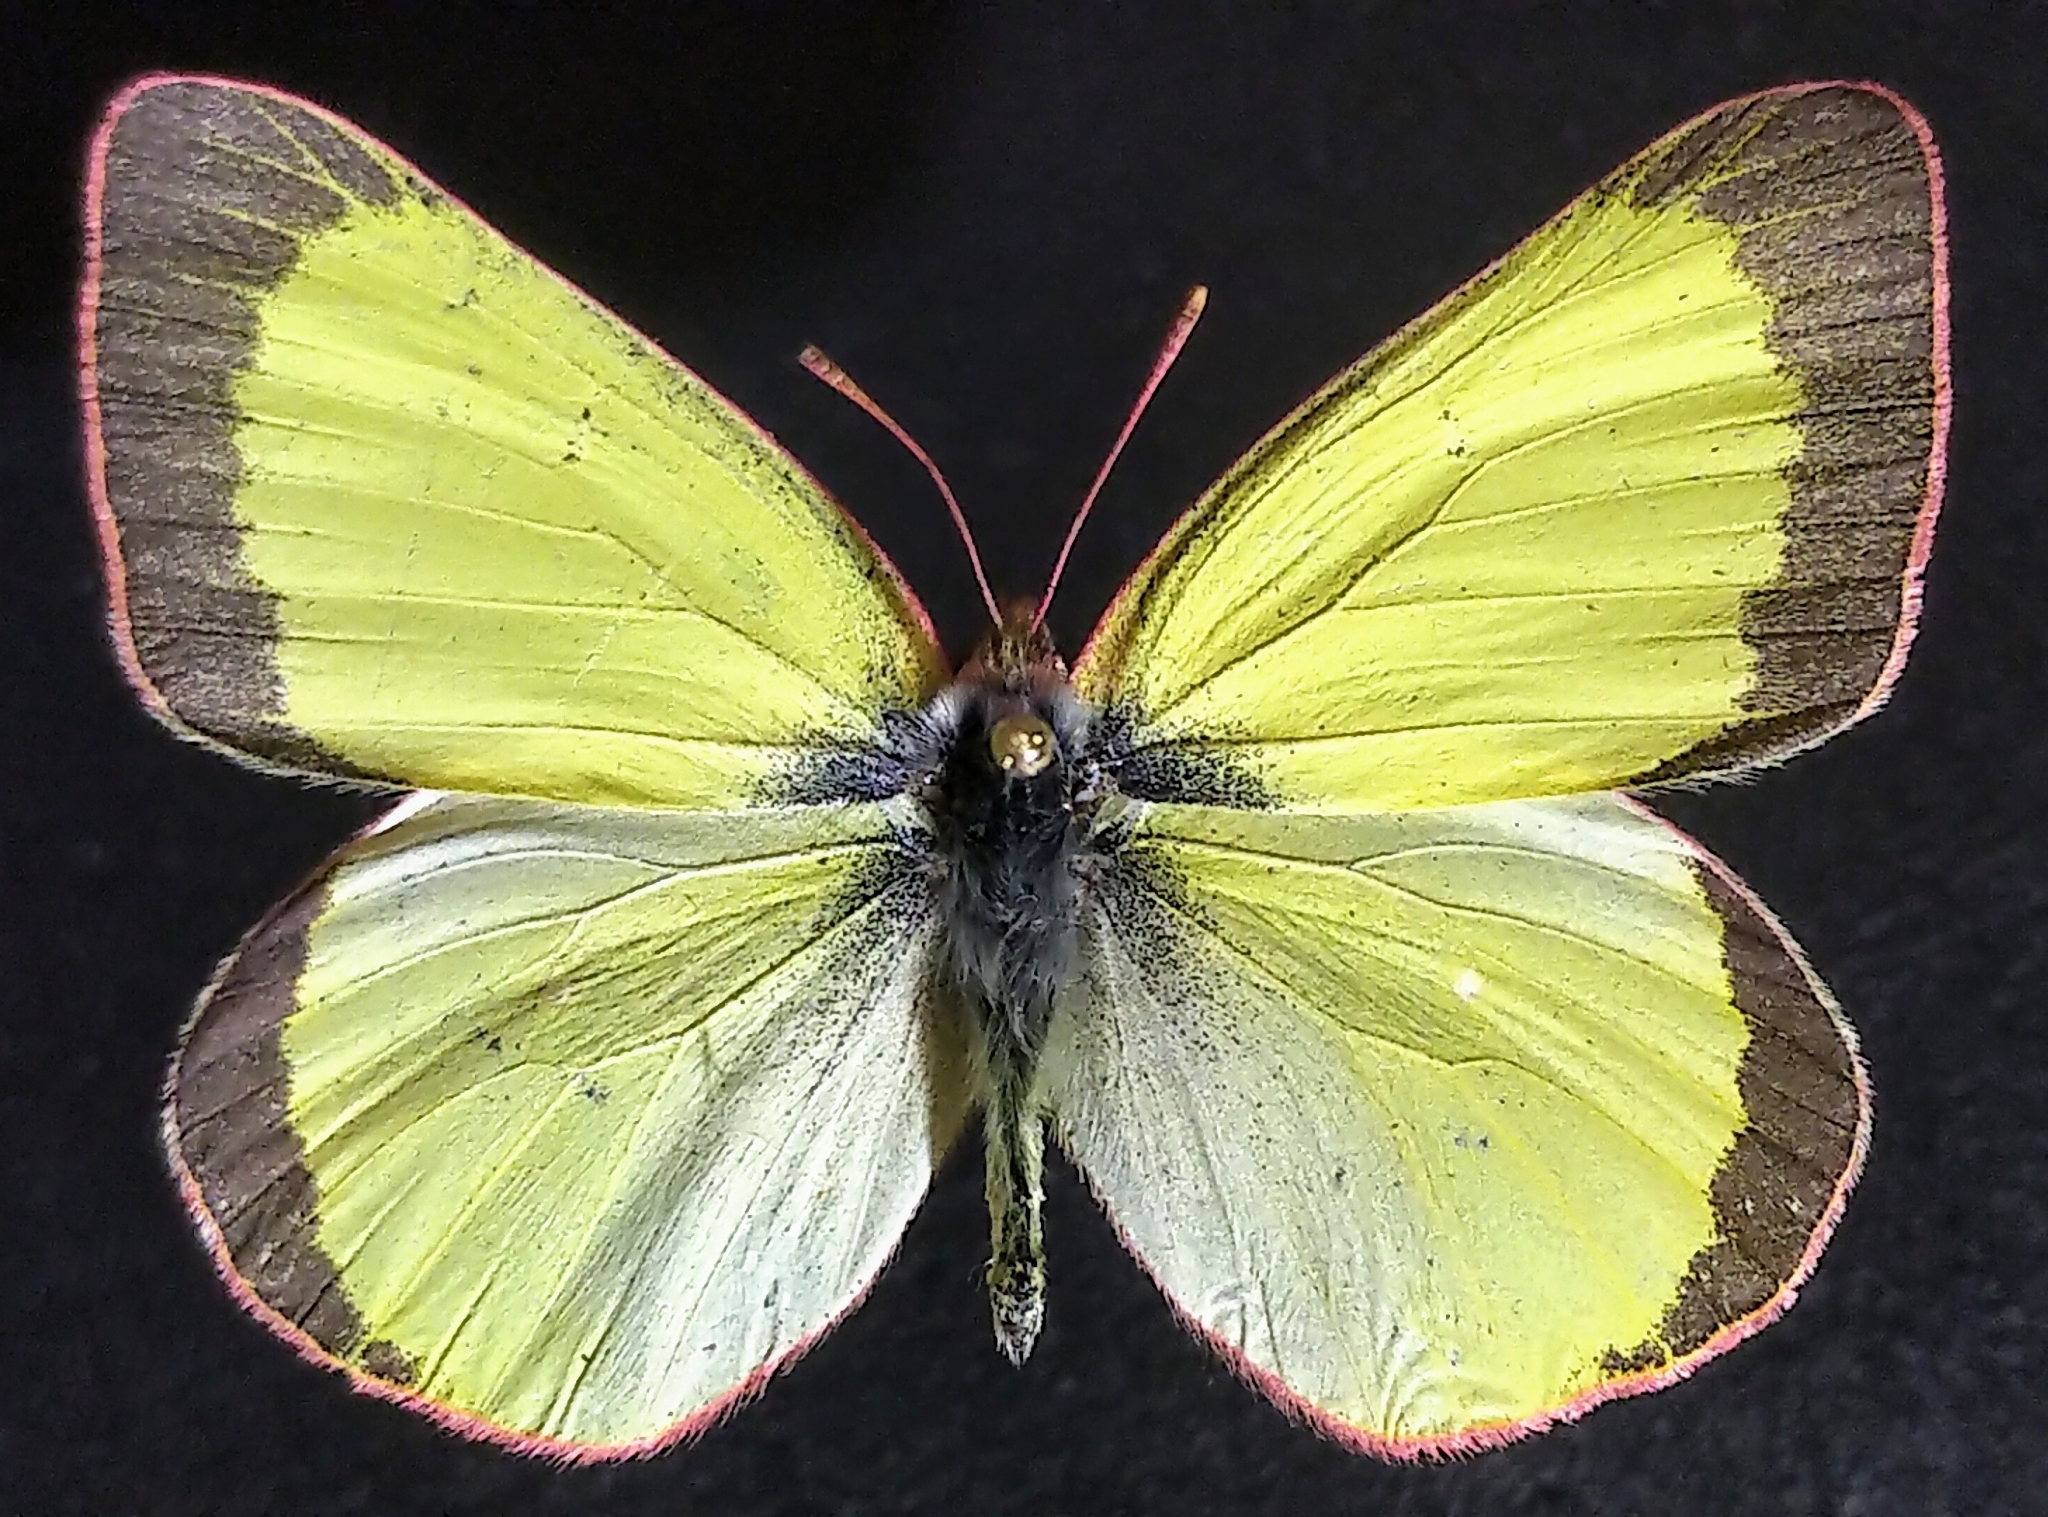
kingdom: Animalia
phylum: Arthropoda
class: Insecta
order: Lepidoptera
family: Pieridae
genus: Colias
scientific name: Colias pelidne
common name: Blueberry sulphur
